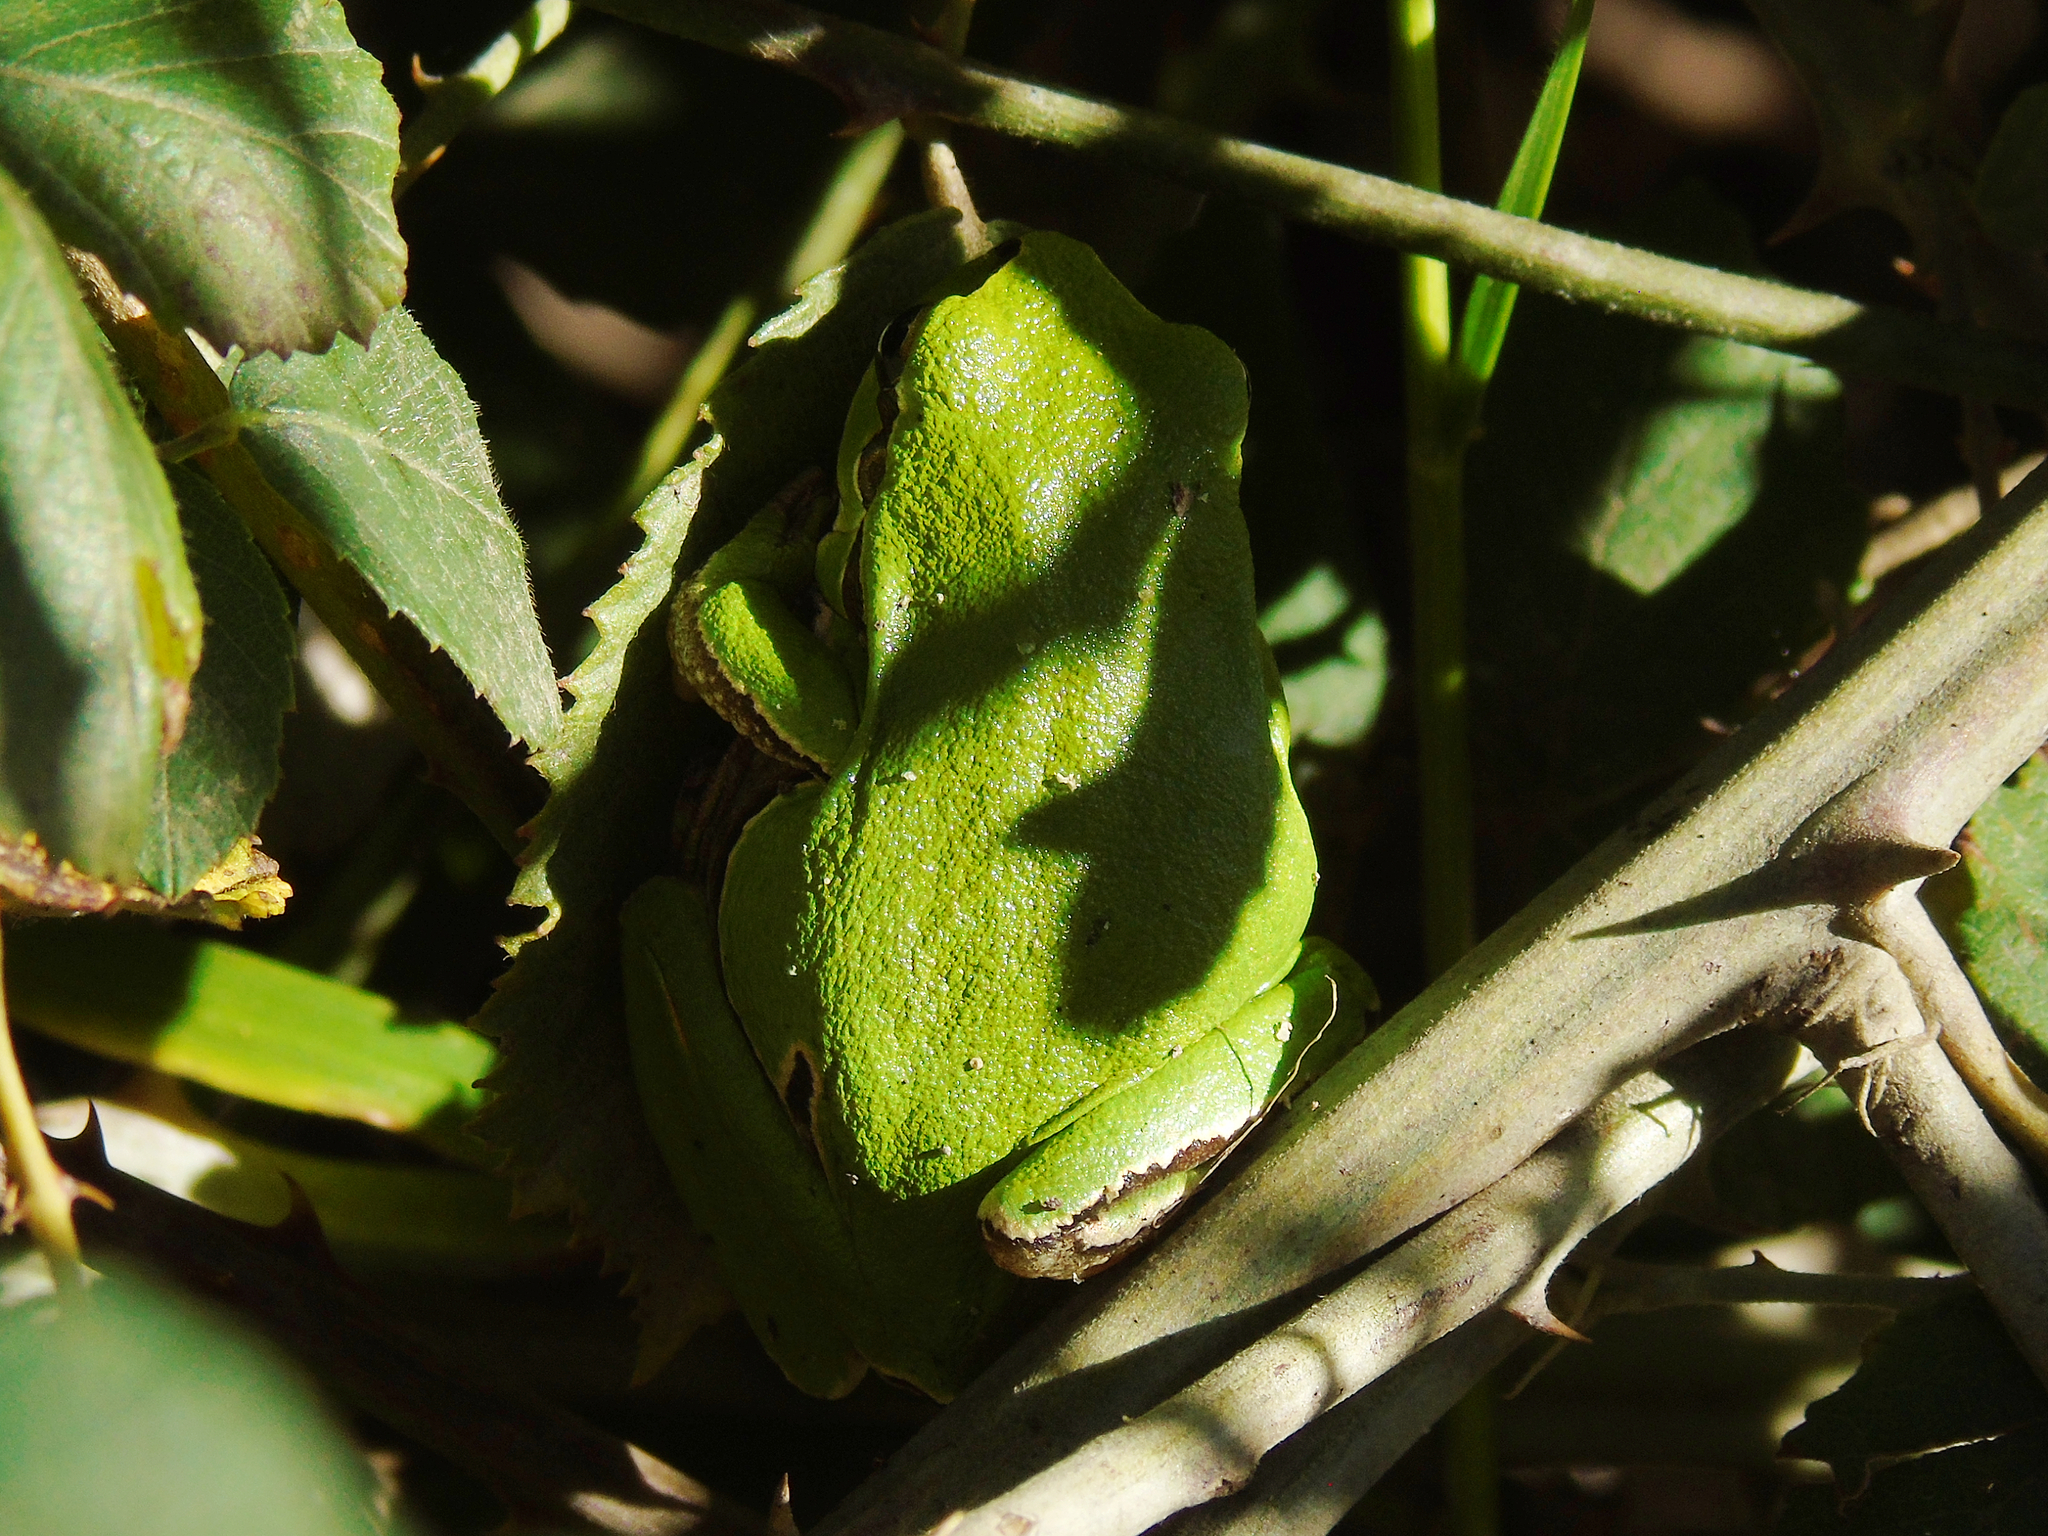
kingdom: Animalia
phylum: Chordata
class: Amphibia
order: Anura
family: Hylidae
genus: Hyla
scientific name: Hyla orientalis
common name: Caucasian treefrog
